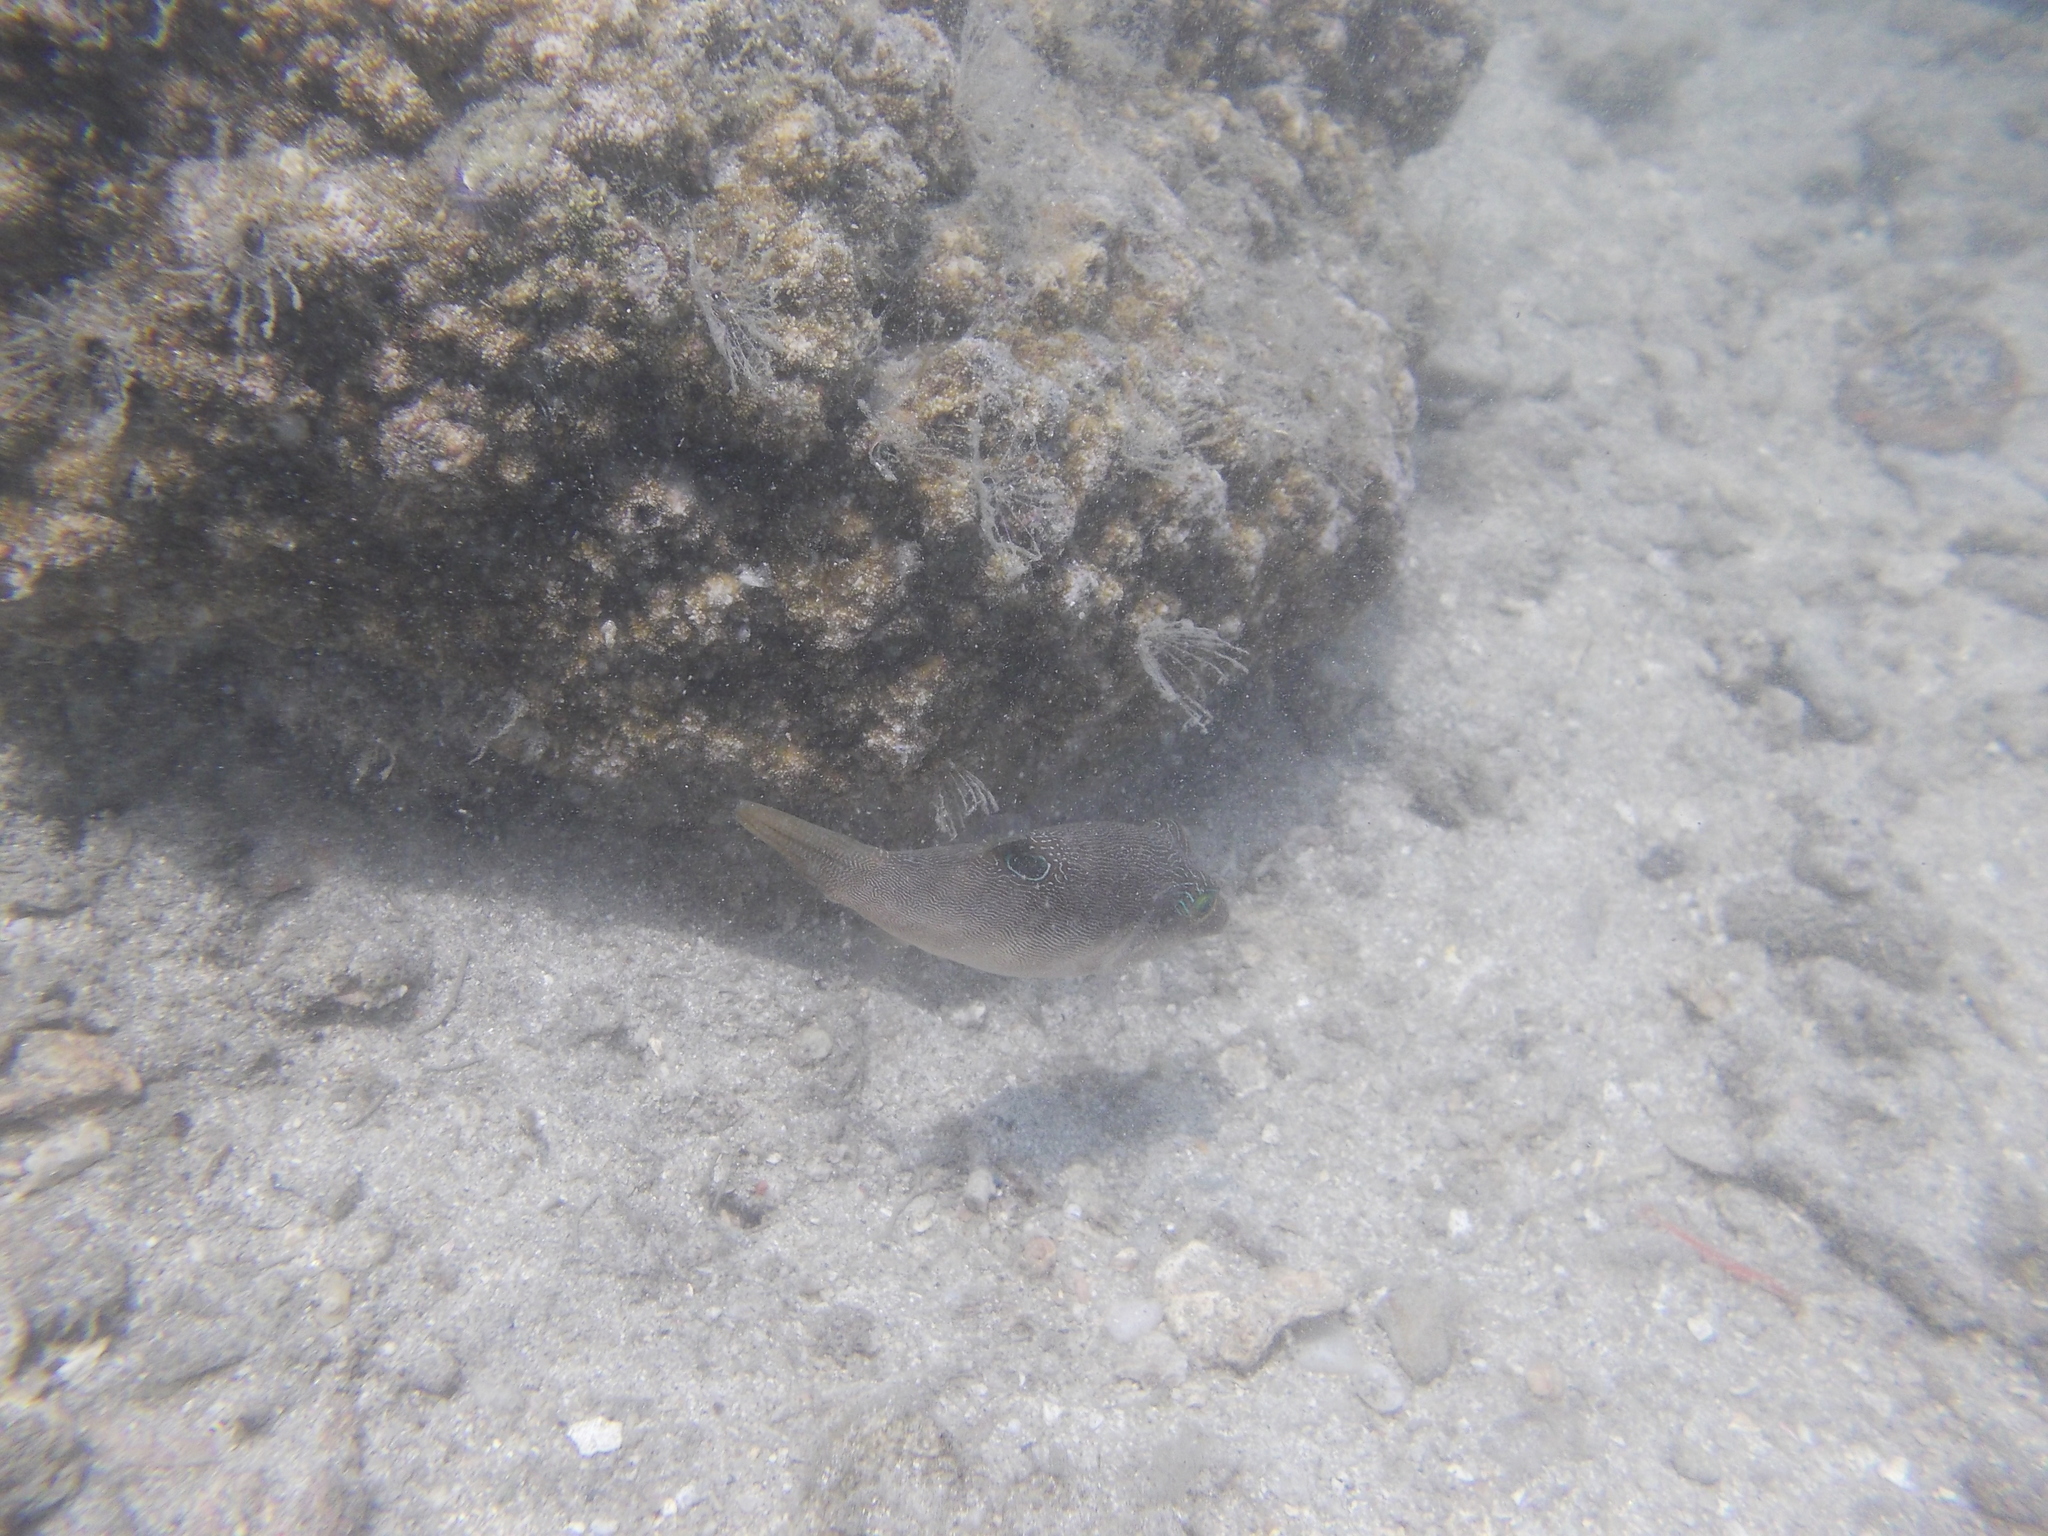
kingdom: Animalia
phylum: Chordata
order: Tetraodontiformes
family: Tetraodontidae
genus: Canthigaster
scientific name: Canthigaster compressa
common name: Compressed toby
